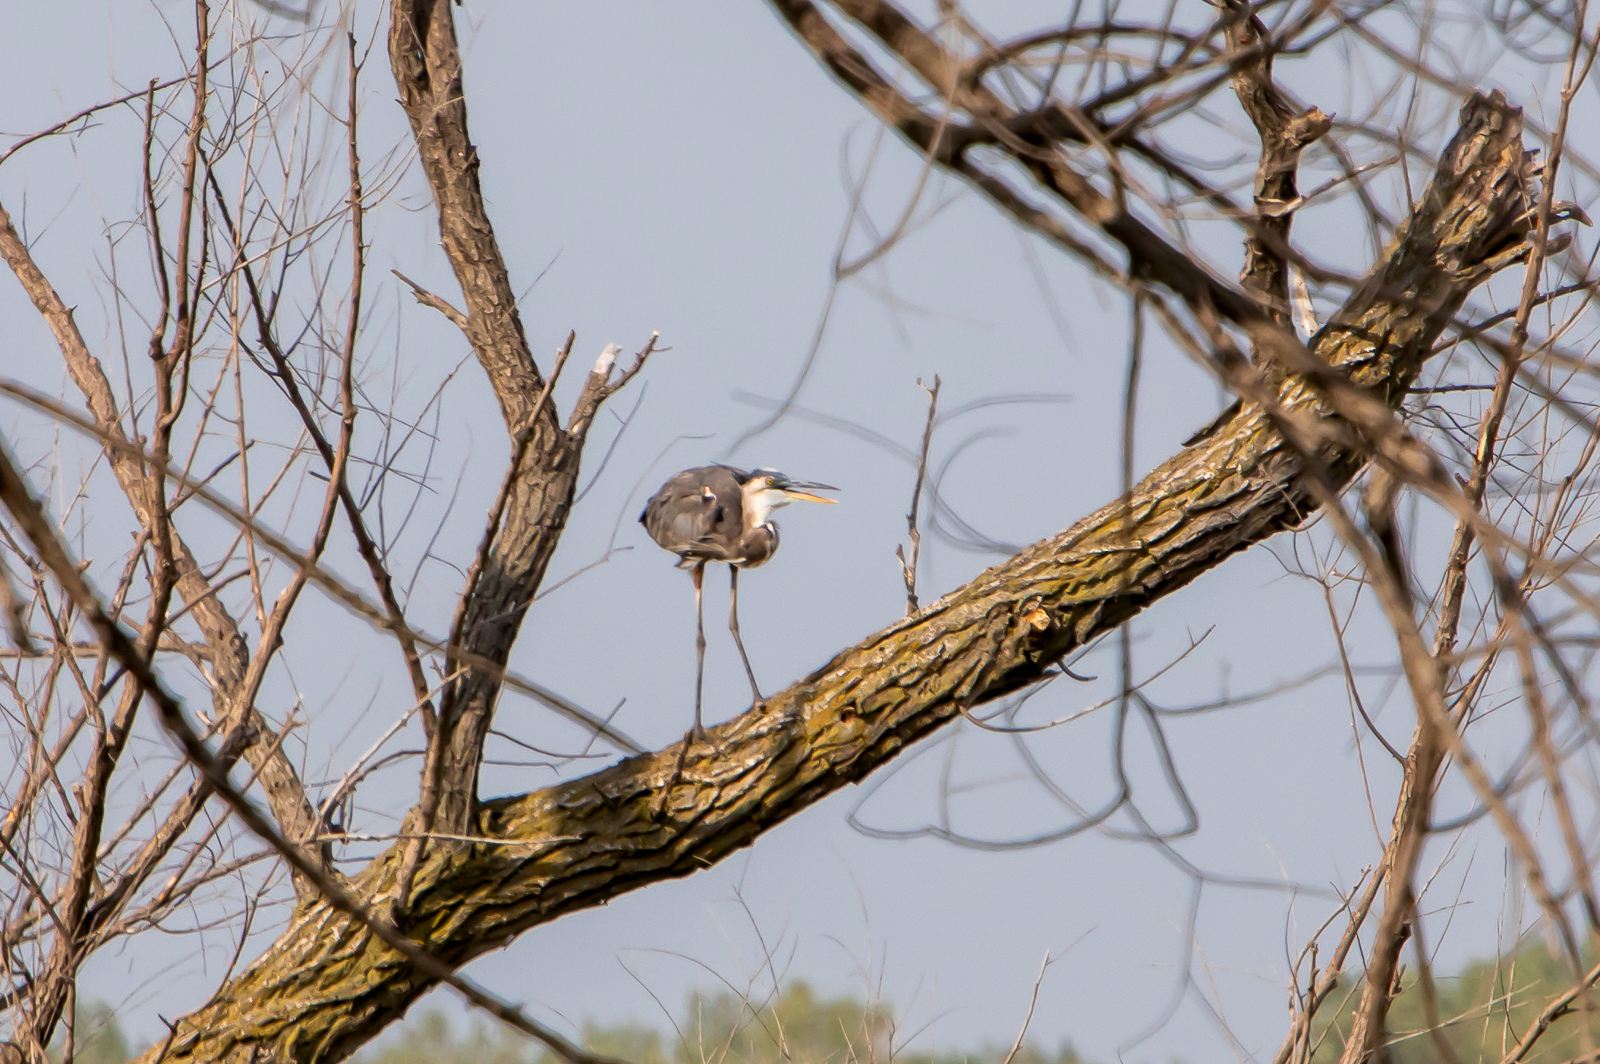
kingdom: Animalia
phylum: Chordata
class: Aves
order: Pelecaniformes
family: Ardeidae
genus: Ardea
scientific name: Ardea herodias
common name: Great blue heron
